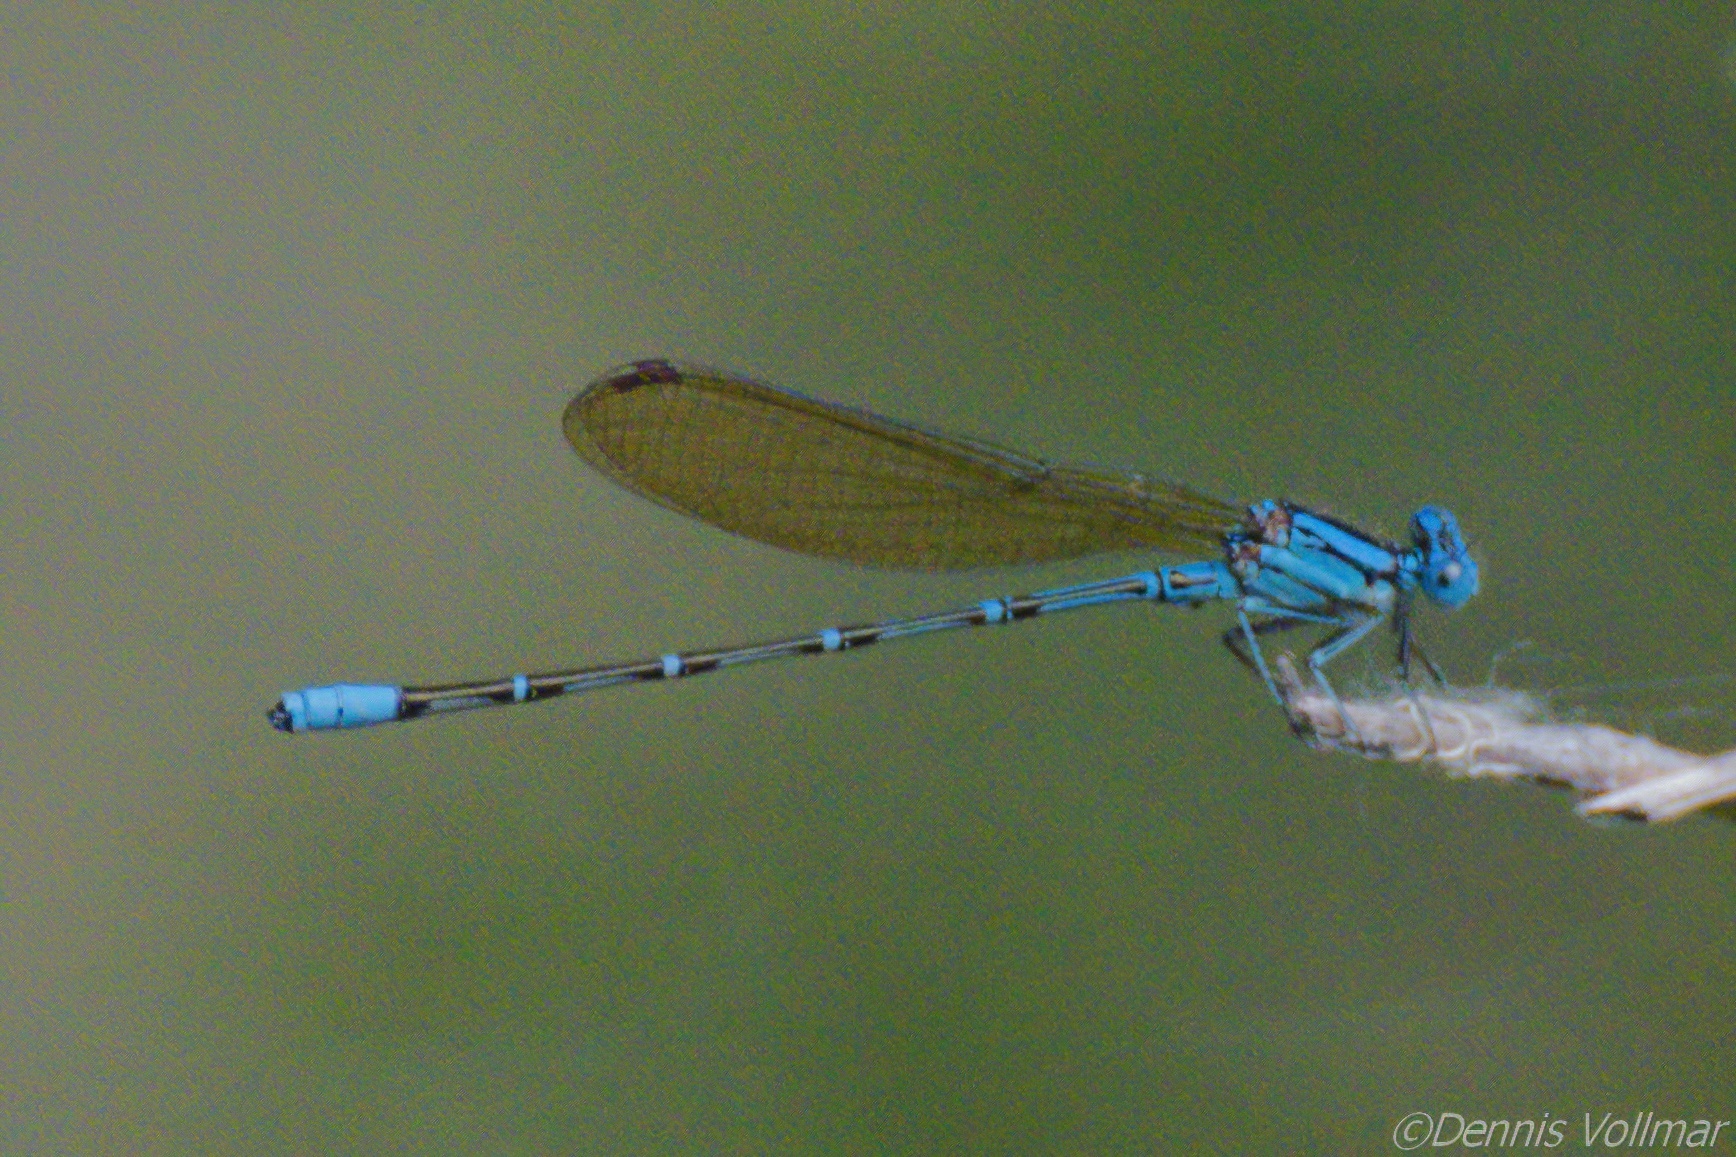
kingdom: Animalia
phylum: Arthropoda
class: Insecta
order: Odonata
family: Coenagrionidae
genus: Argia
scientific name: Argia rhoadsi
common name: Golden-winged dancer
